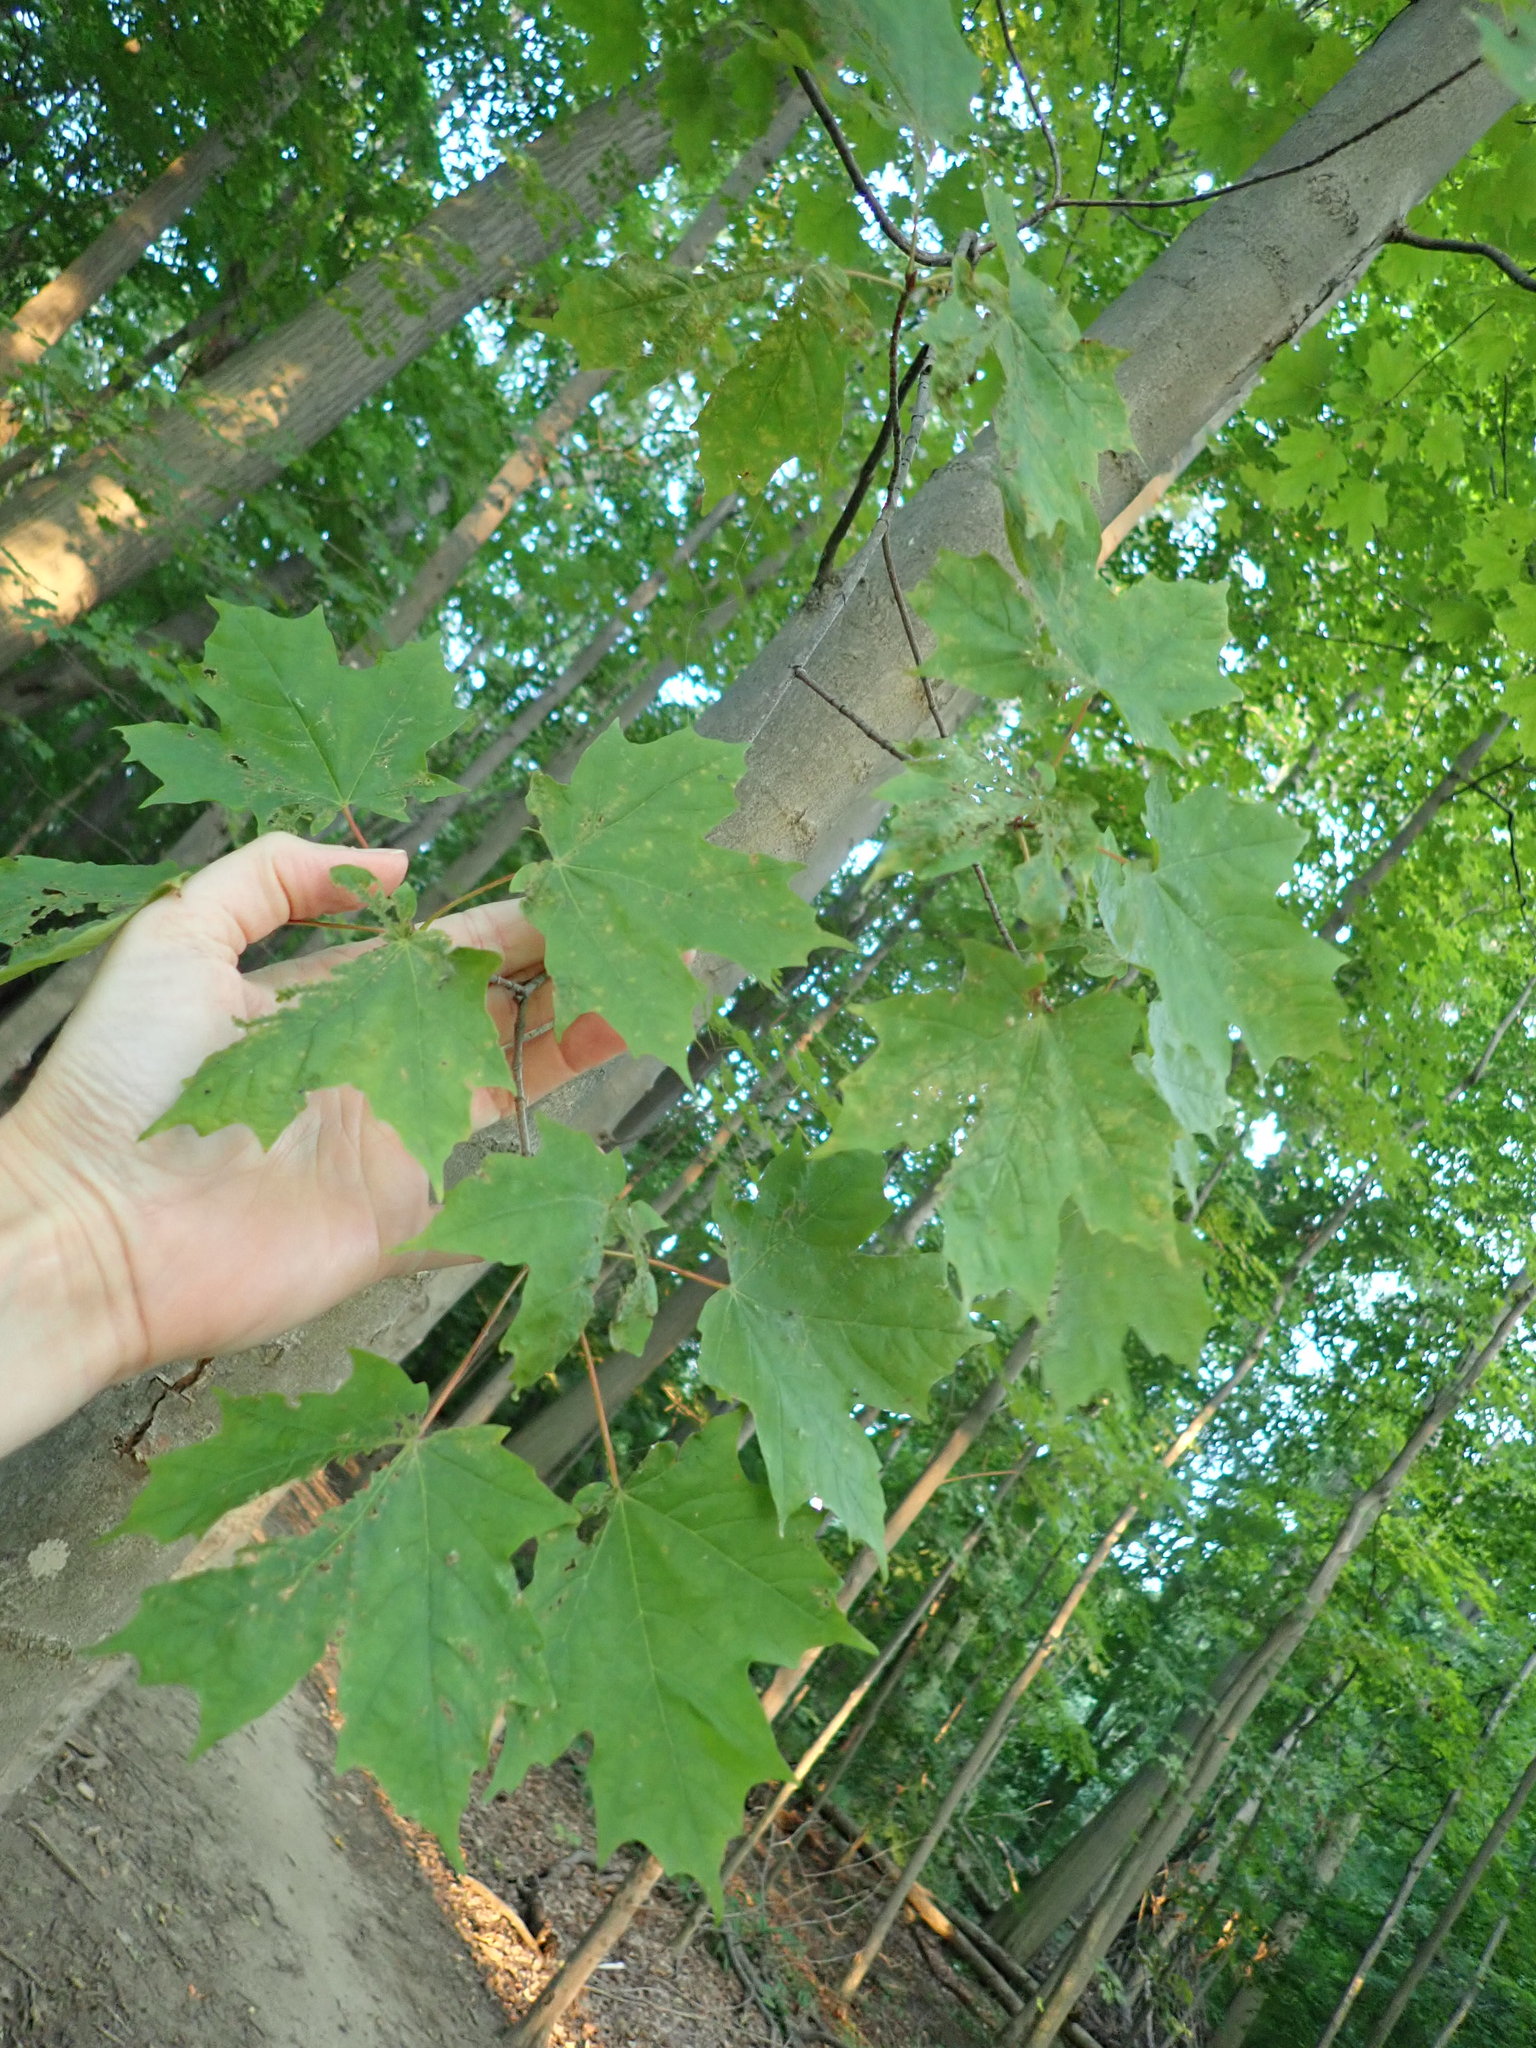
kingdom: Plantae
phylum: Tracheophyta
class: Magnoliopsida
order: Sapindales
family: Sapindaceae
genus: Acer
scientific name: Acer saccharum
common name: Sugar maple
